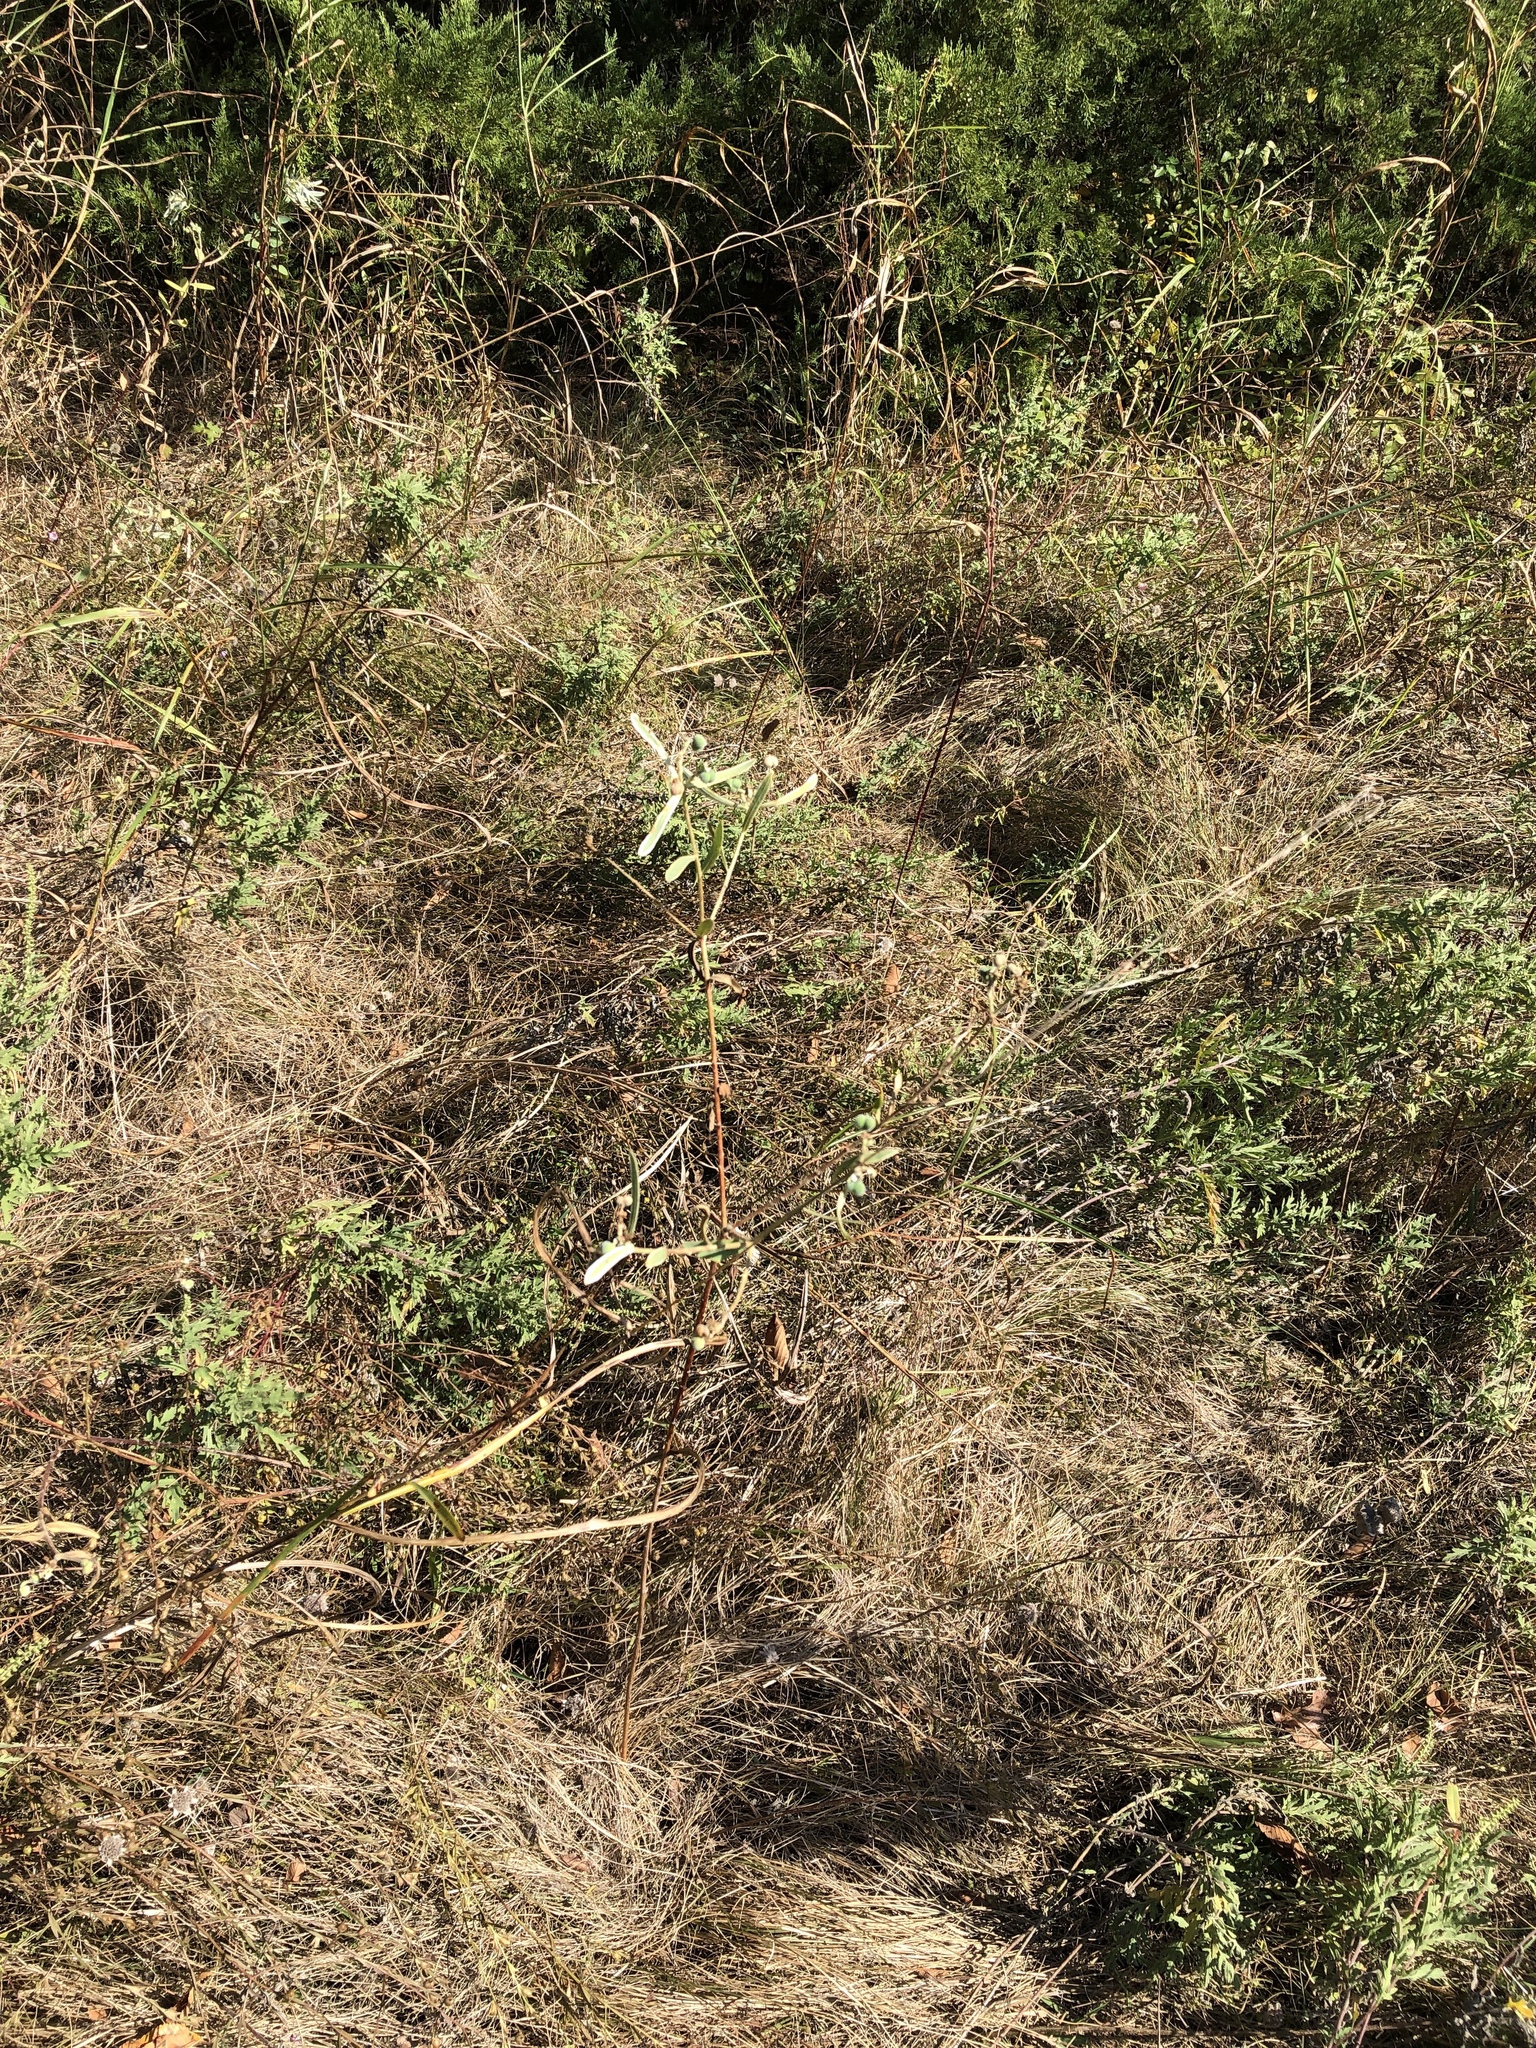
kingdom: Plantae
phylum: Tracheophyta
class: Magnoliopsida
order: Malpighiales
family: Euphorbiaceae
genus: Euphorbia
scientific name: Euphorbia bicolor
